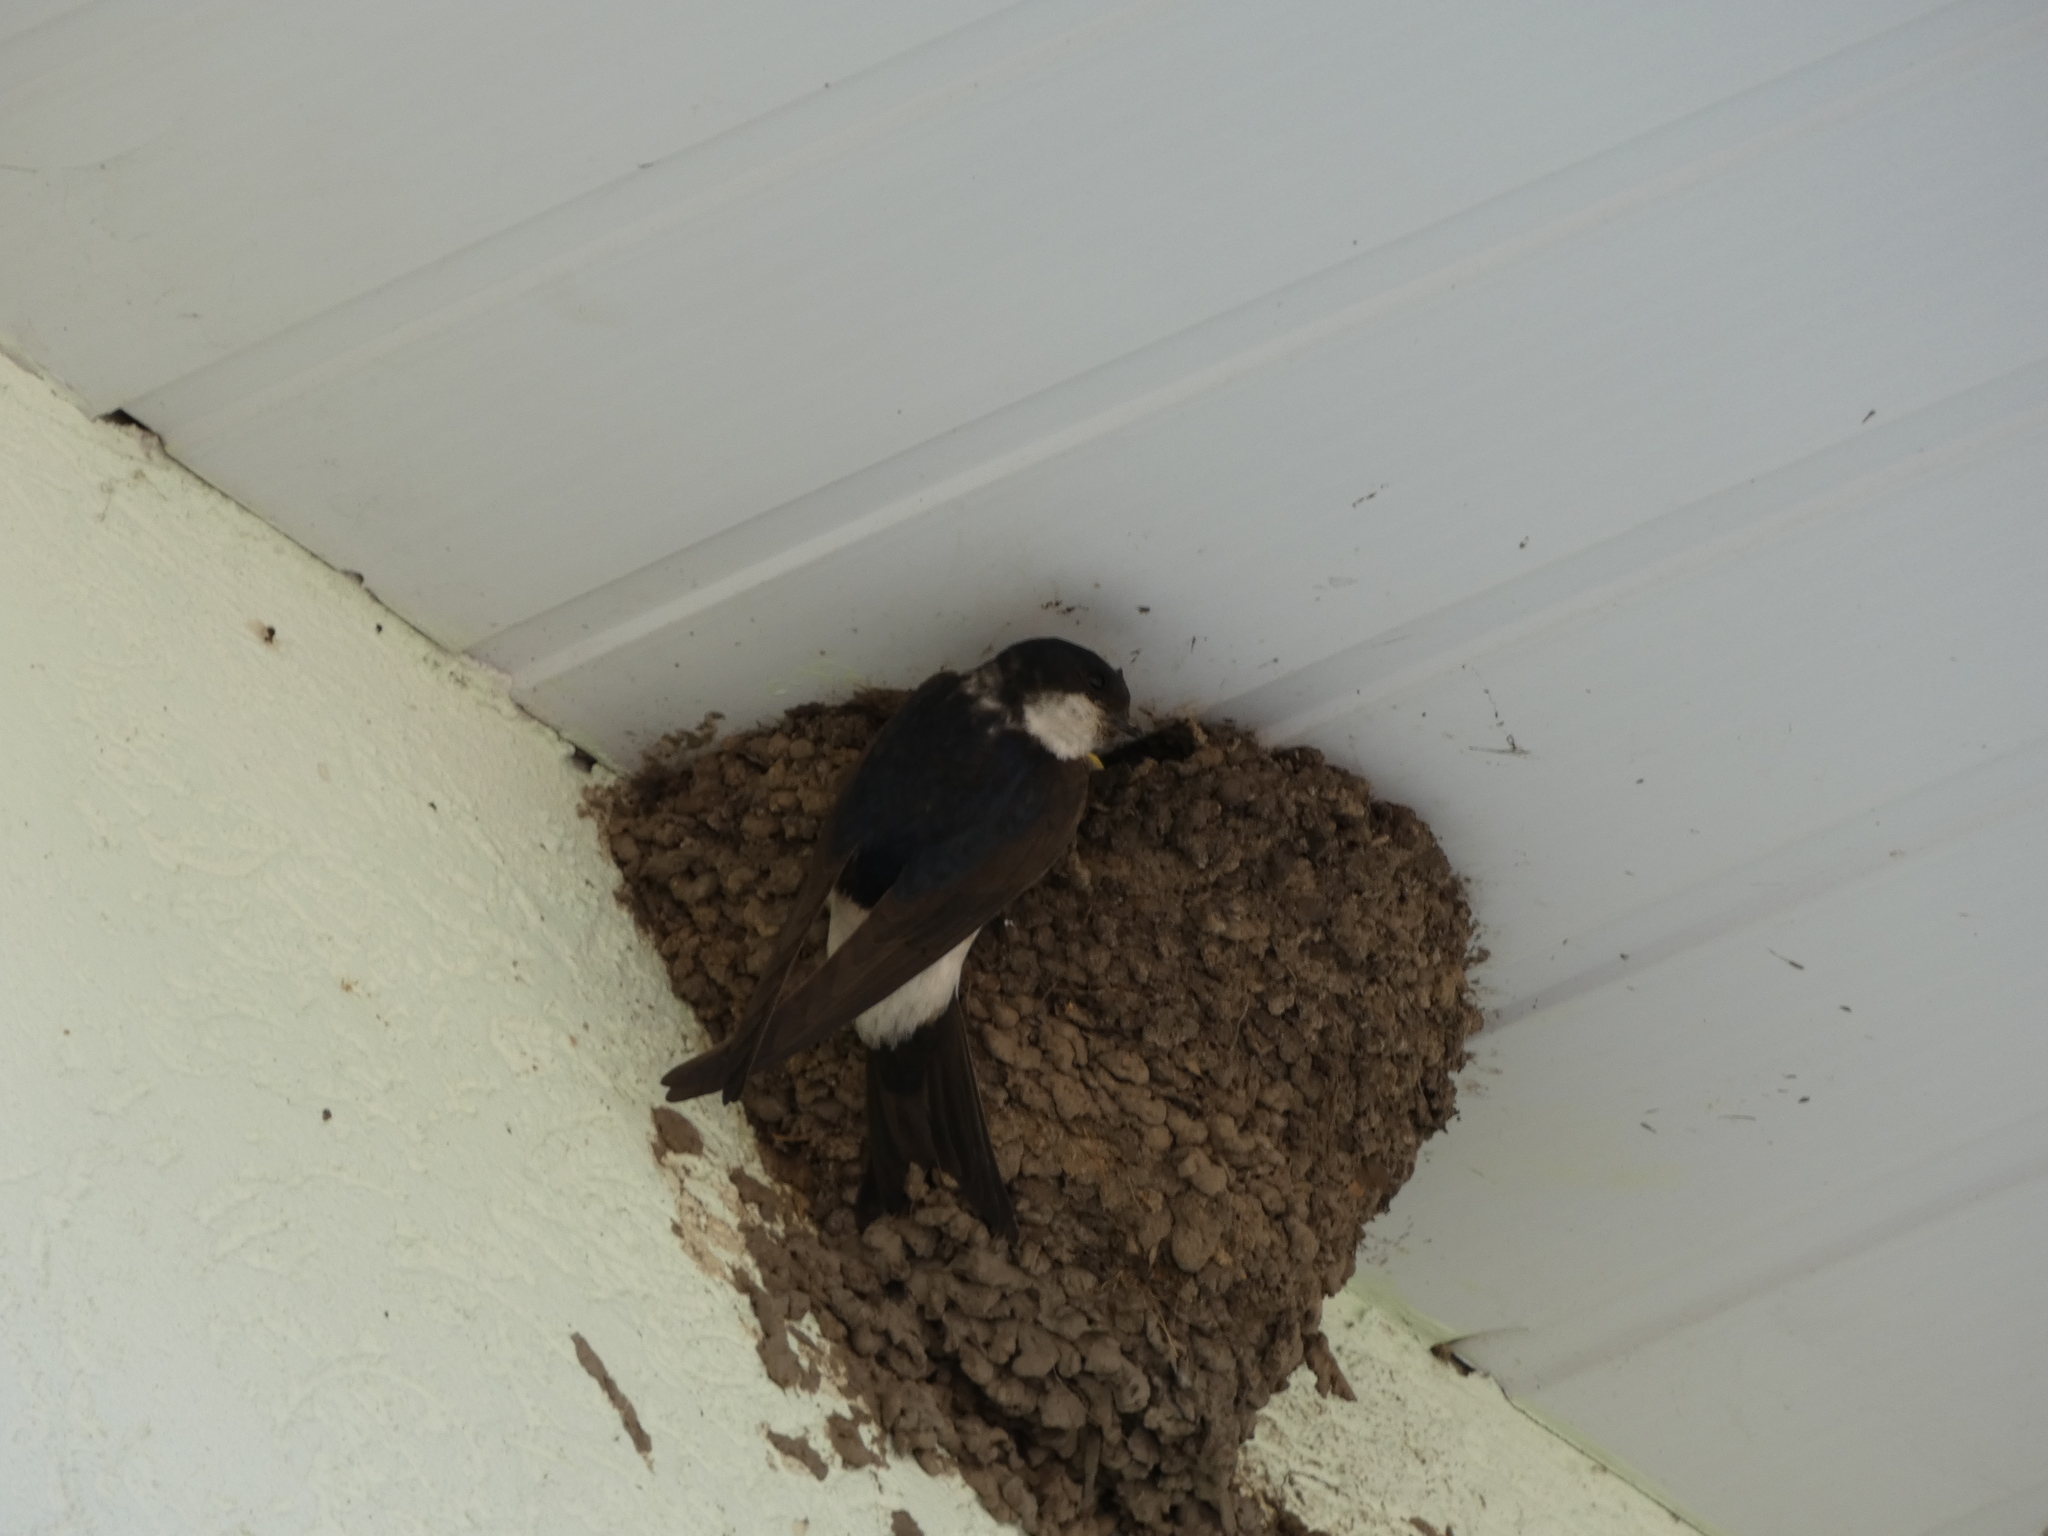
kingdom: Animalia
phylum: Chordata
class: Aves
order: Passeriformes
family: Hirundinidae
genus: Delichon
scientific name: Delichon urbicum
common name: Common house martin
